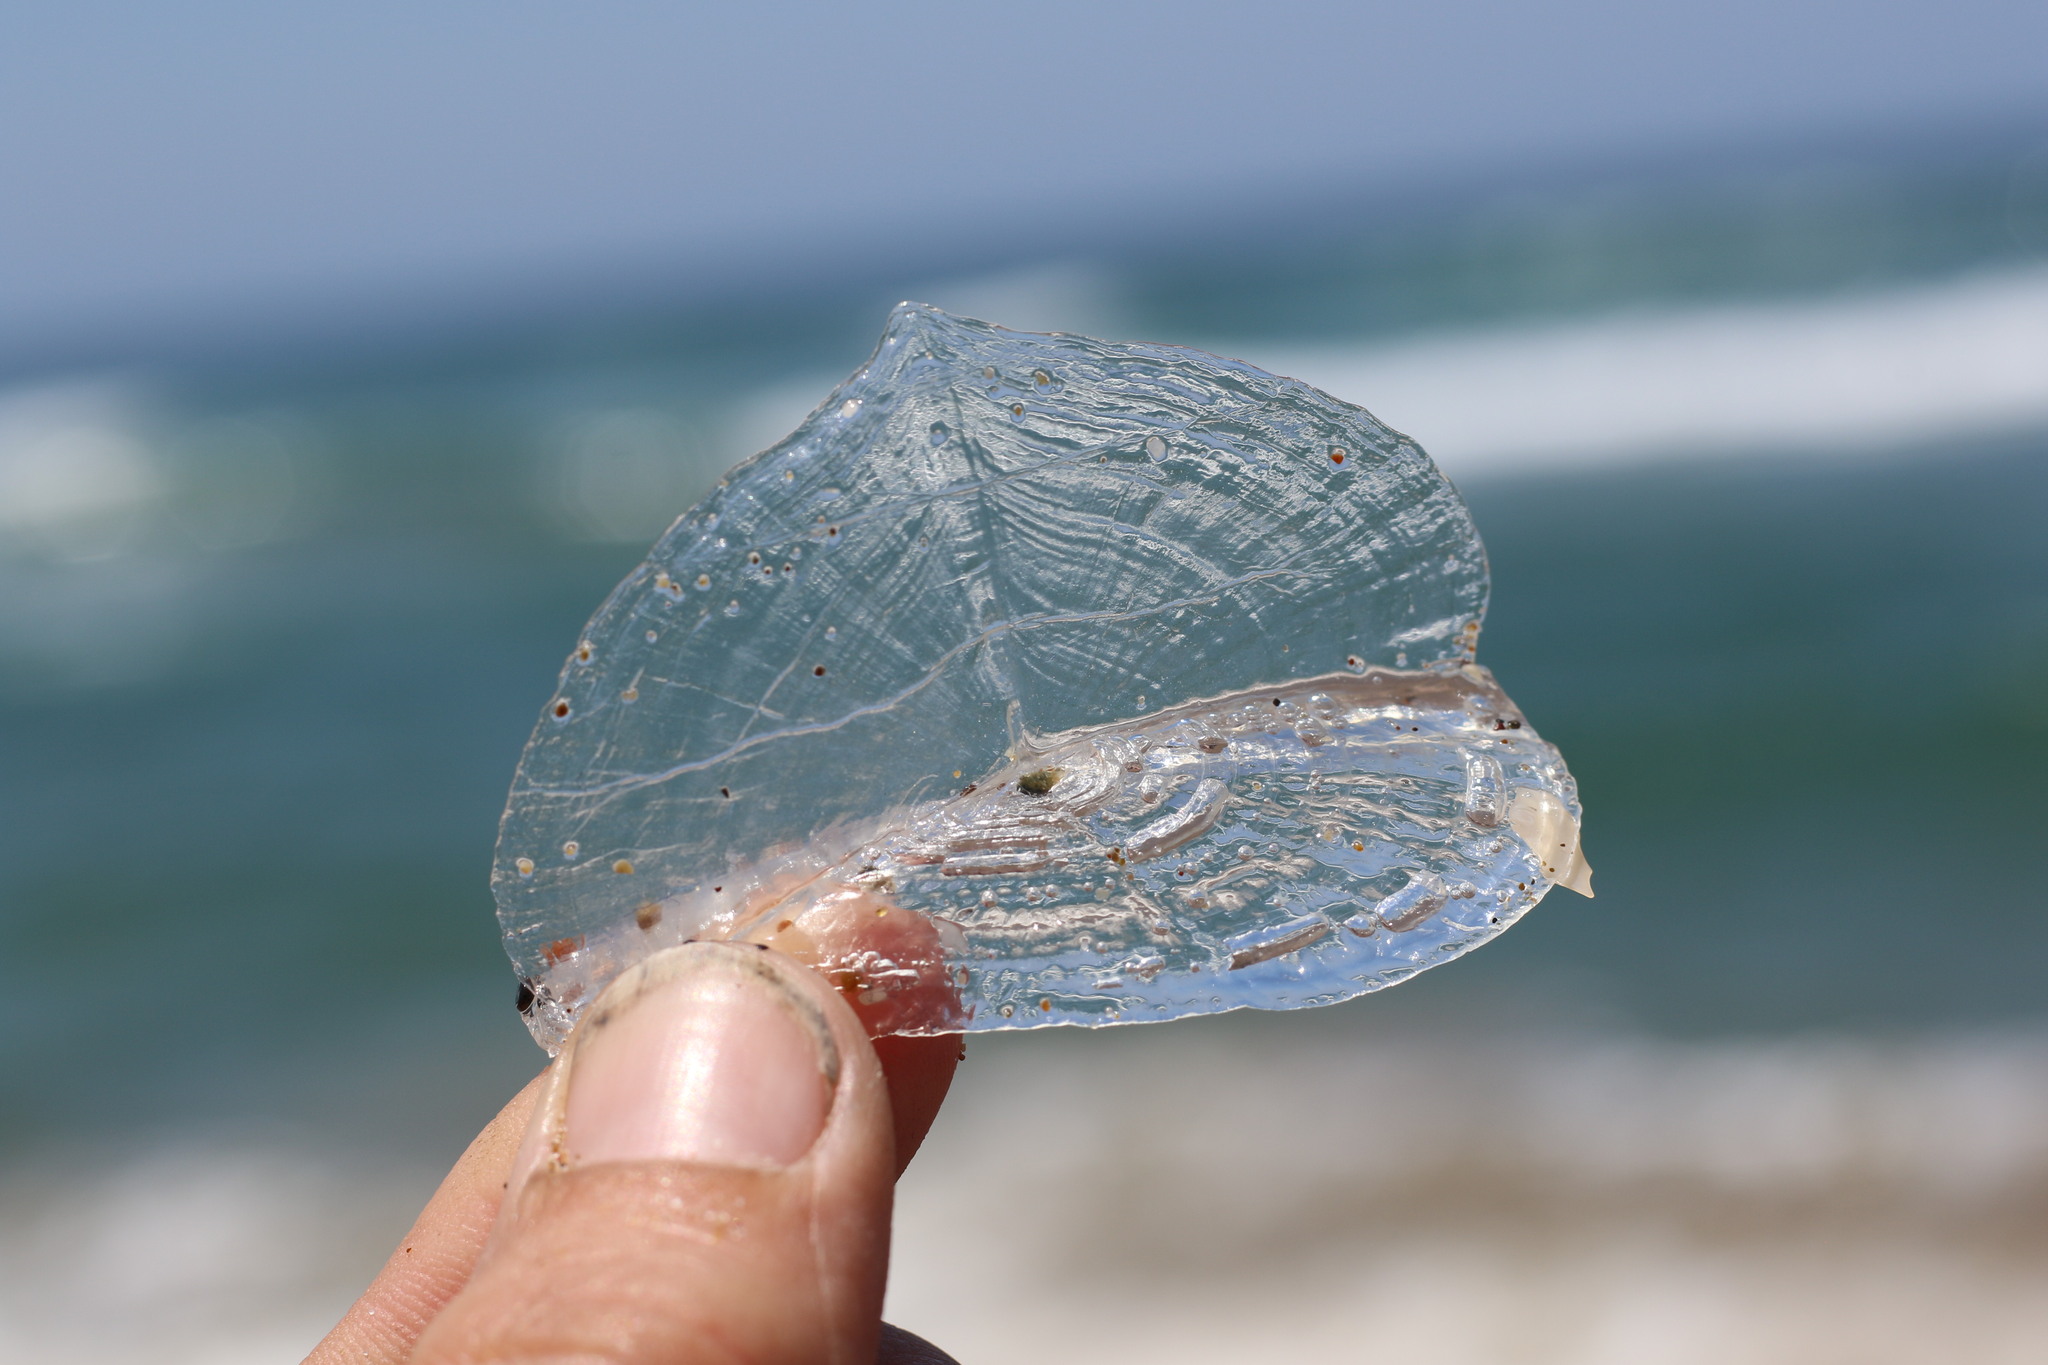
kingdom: Animalia
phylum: Cnidaria
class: Hydrozoa
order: Anthoathecata
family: Porpitidae
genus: Velella
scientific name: Velella velella
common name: By-the-wind-sailor
